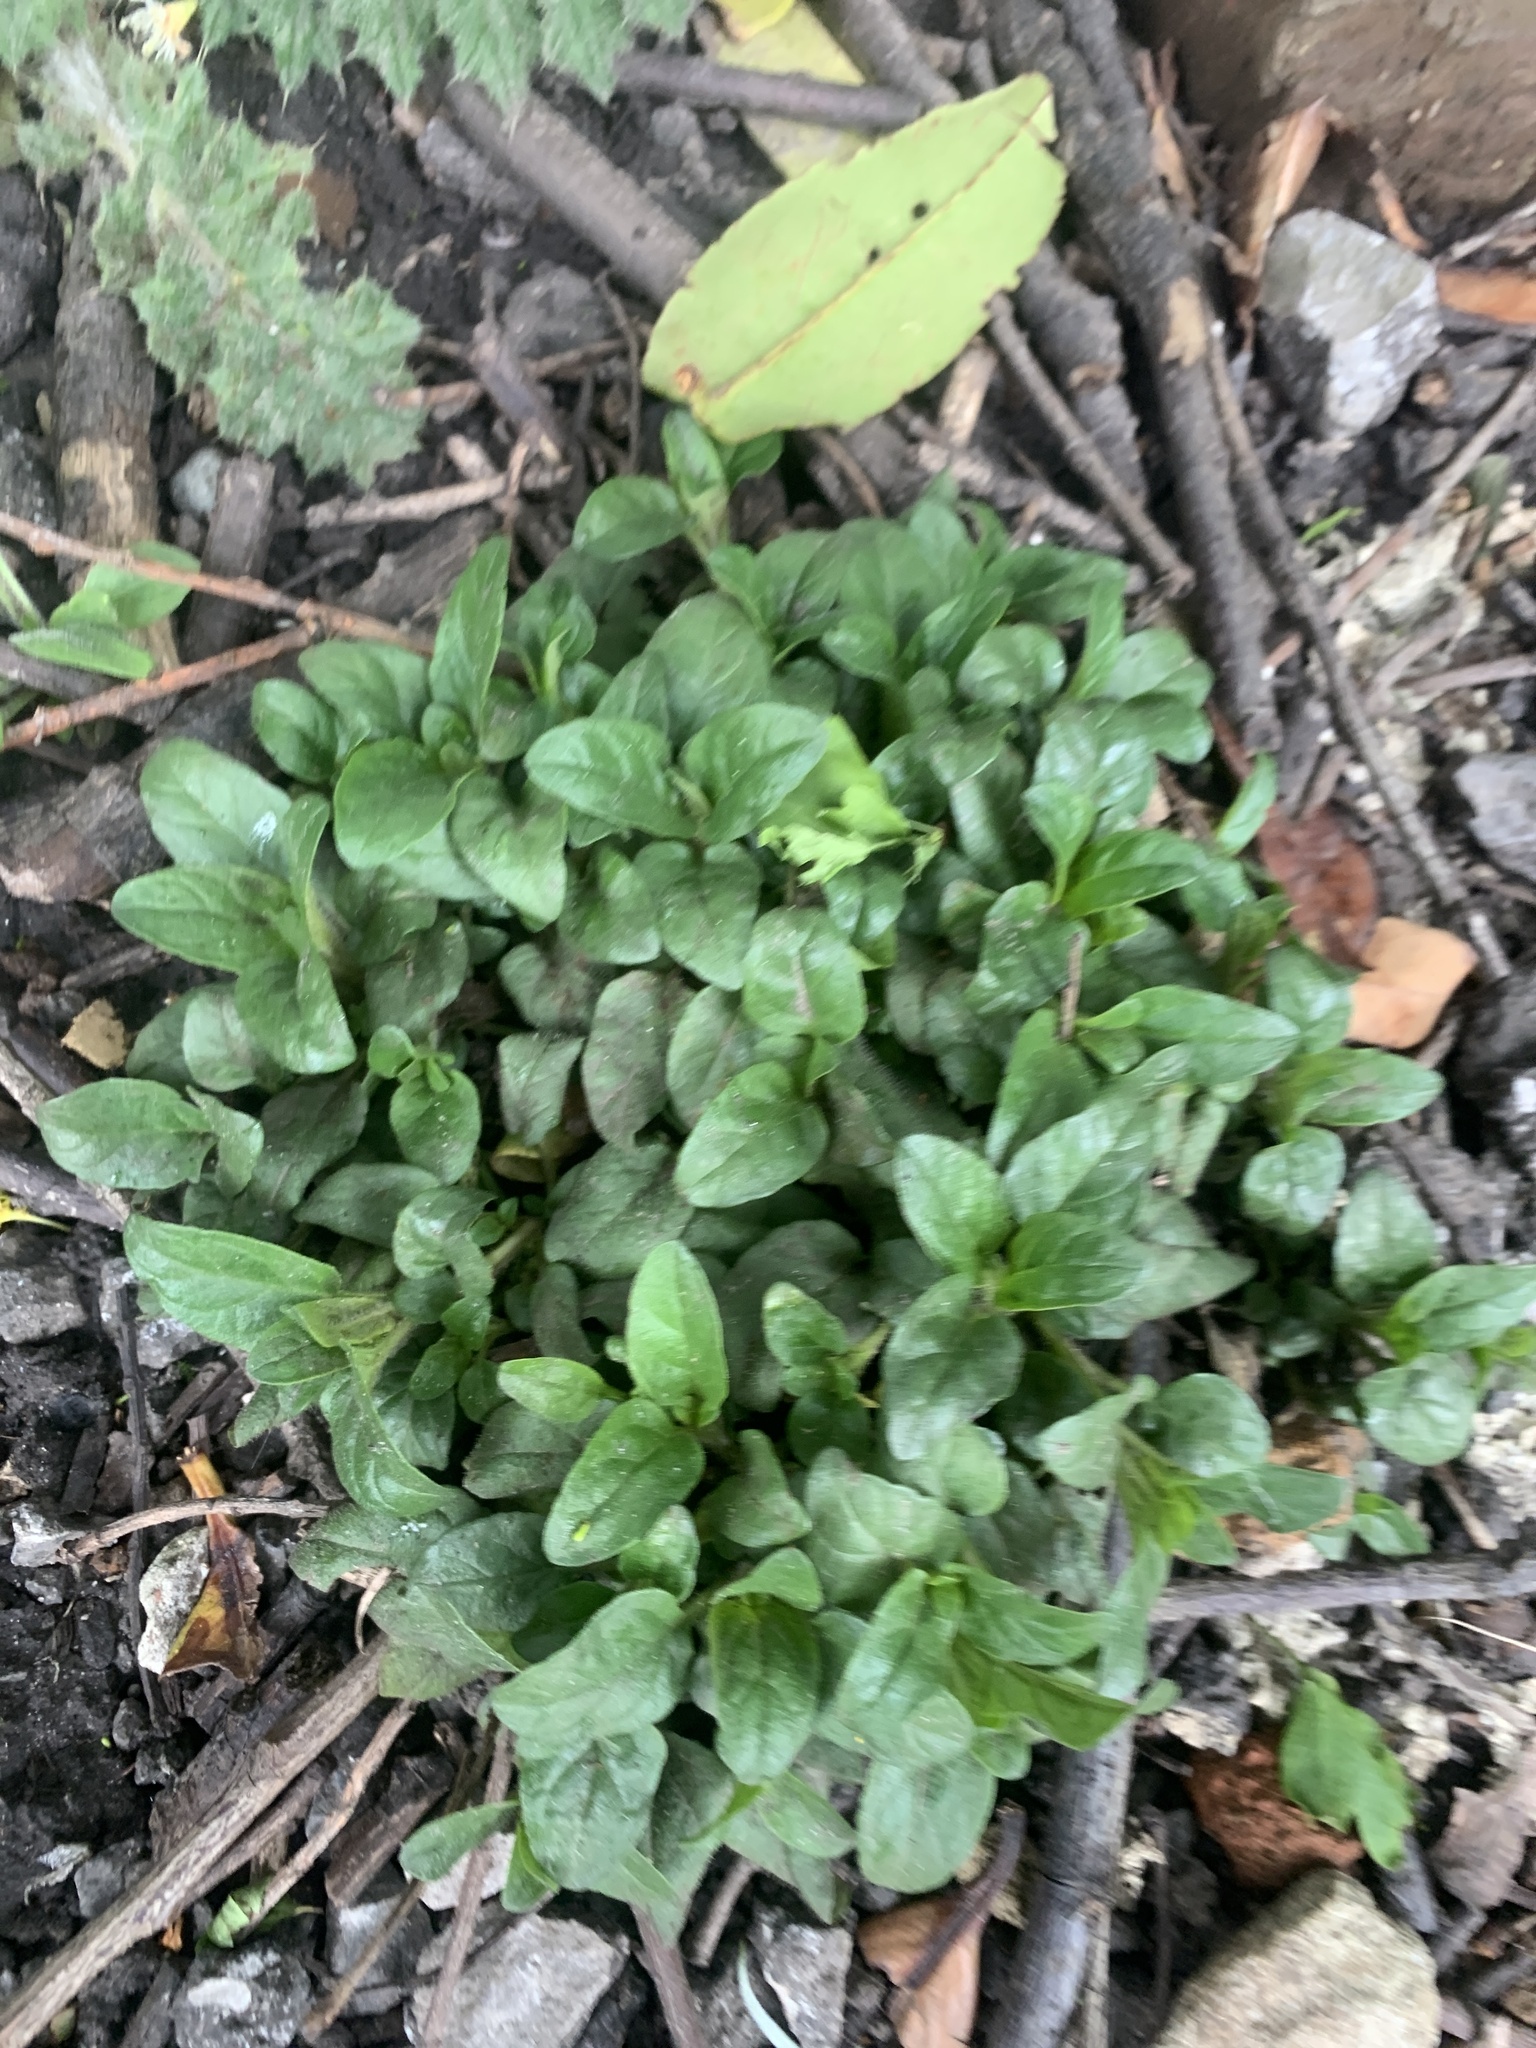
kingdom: Plantae
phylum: Tracheophyta
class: Magnoliopsida
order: Lamiales
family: Lamiaceae
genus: Prunella
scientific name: Prunella vulgaris
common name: Heal-all
